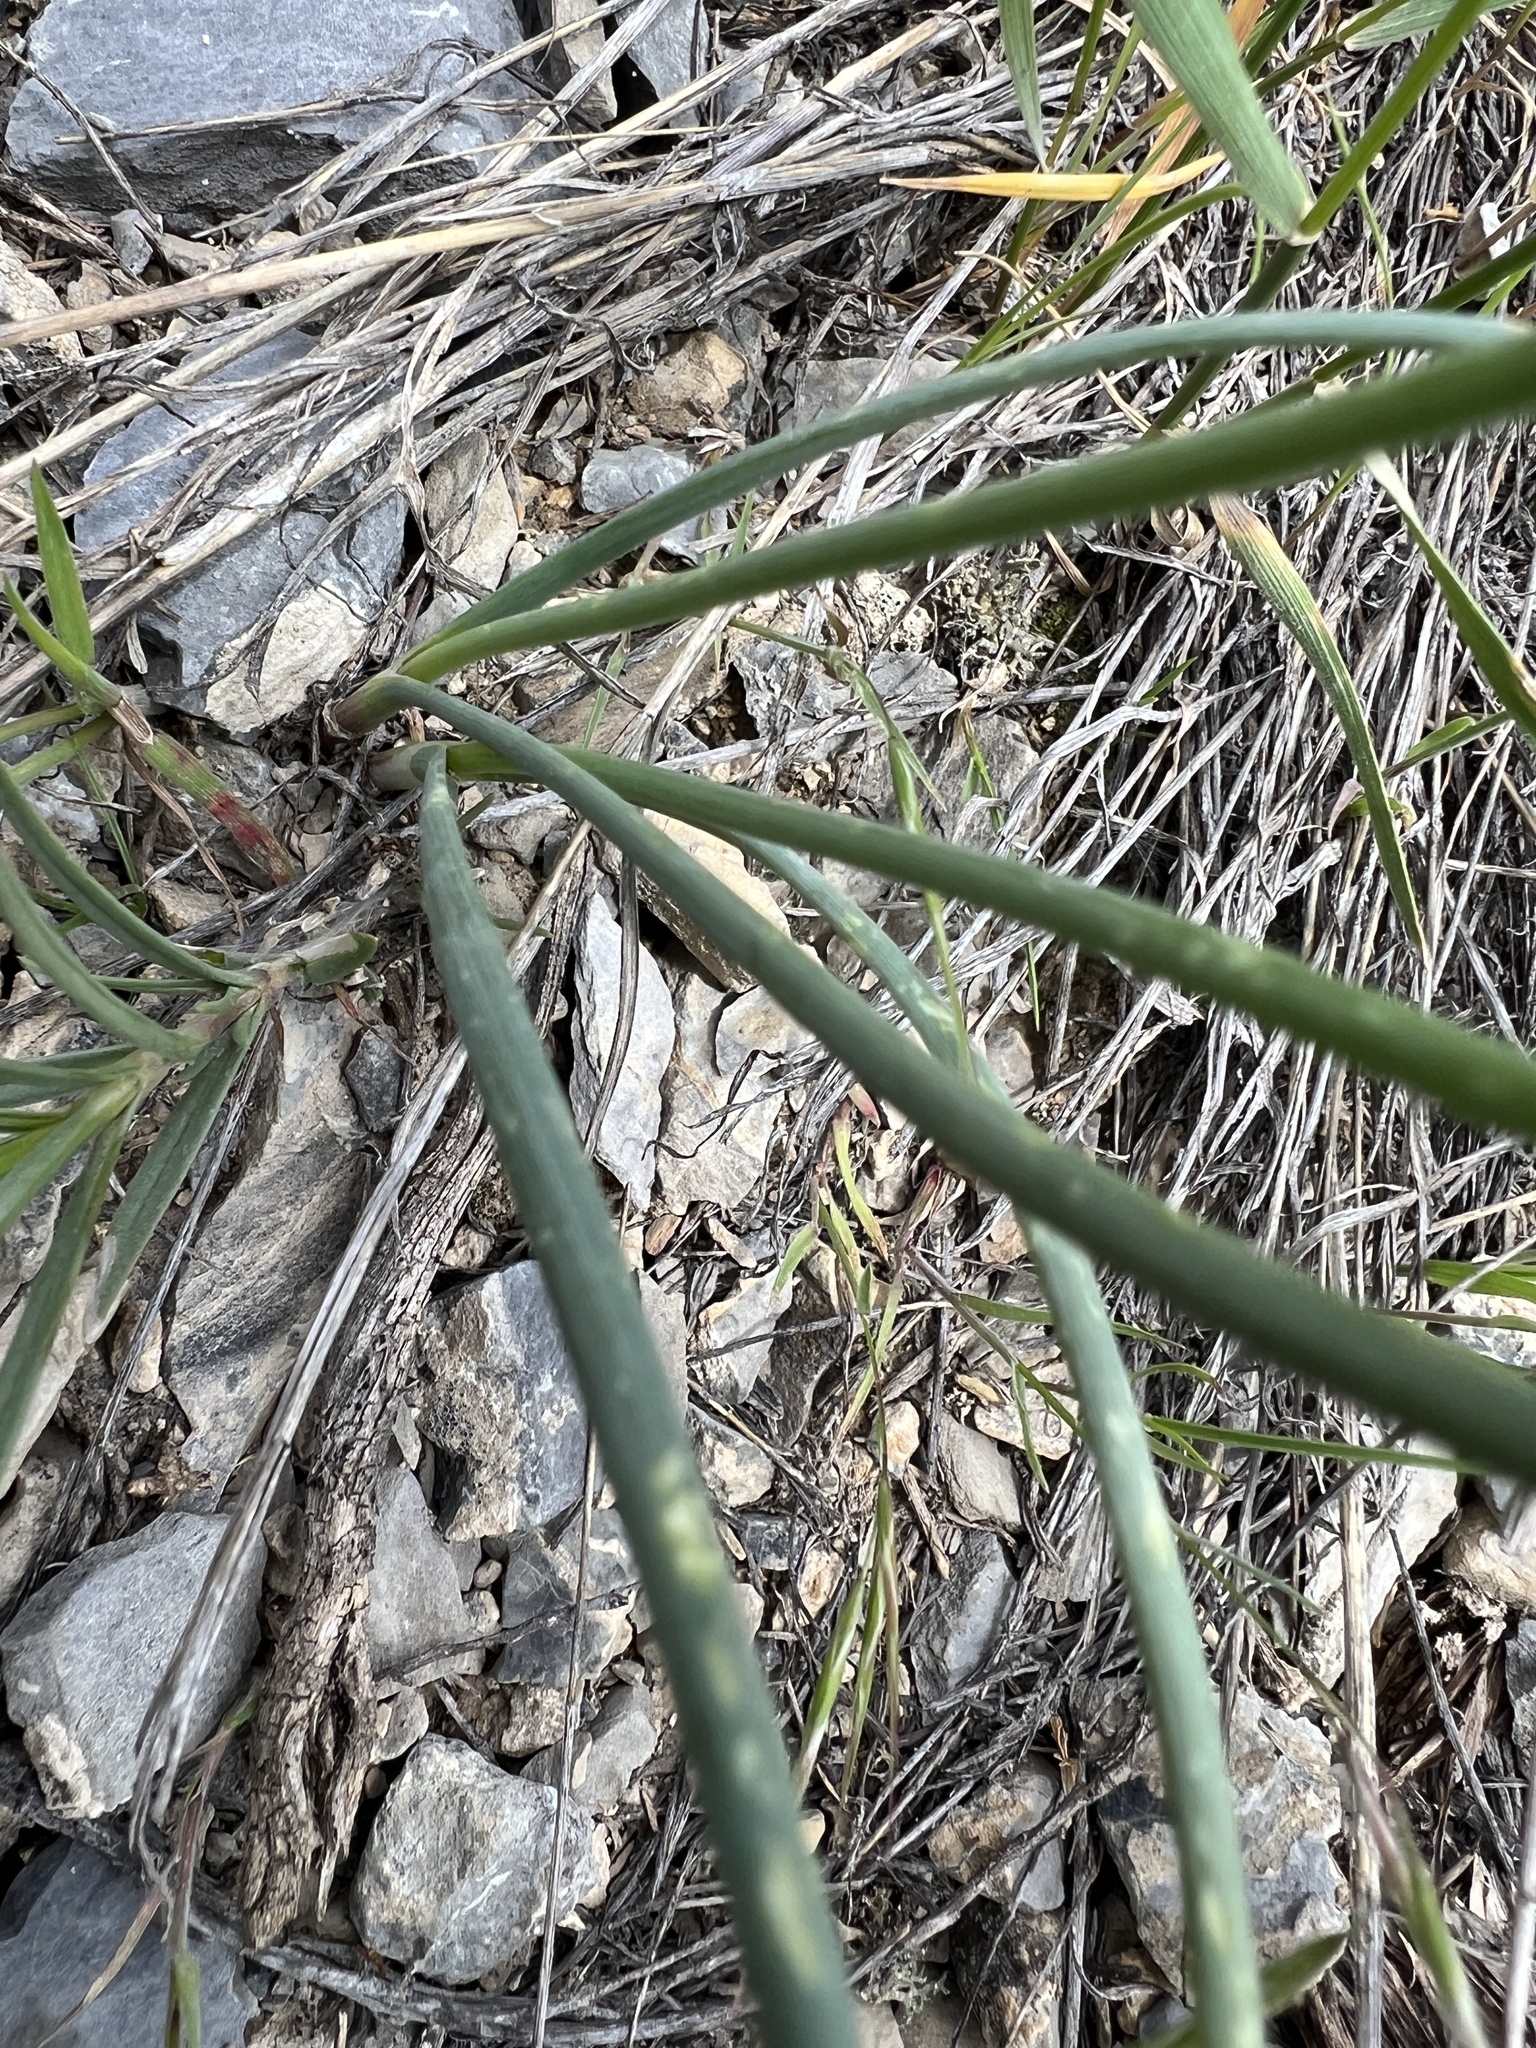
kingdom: Plantae
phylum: Tracheophyta
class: Liliopsida
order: Asparagales
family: Amaryllidaceae
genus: Allium
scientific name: Allium textile
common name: Prairie onion
